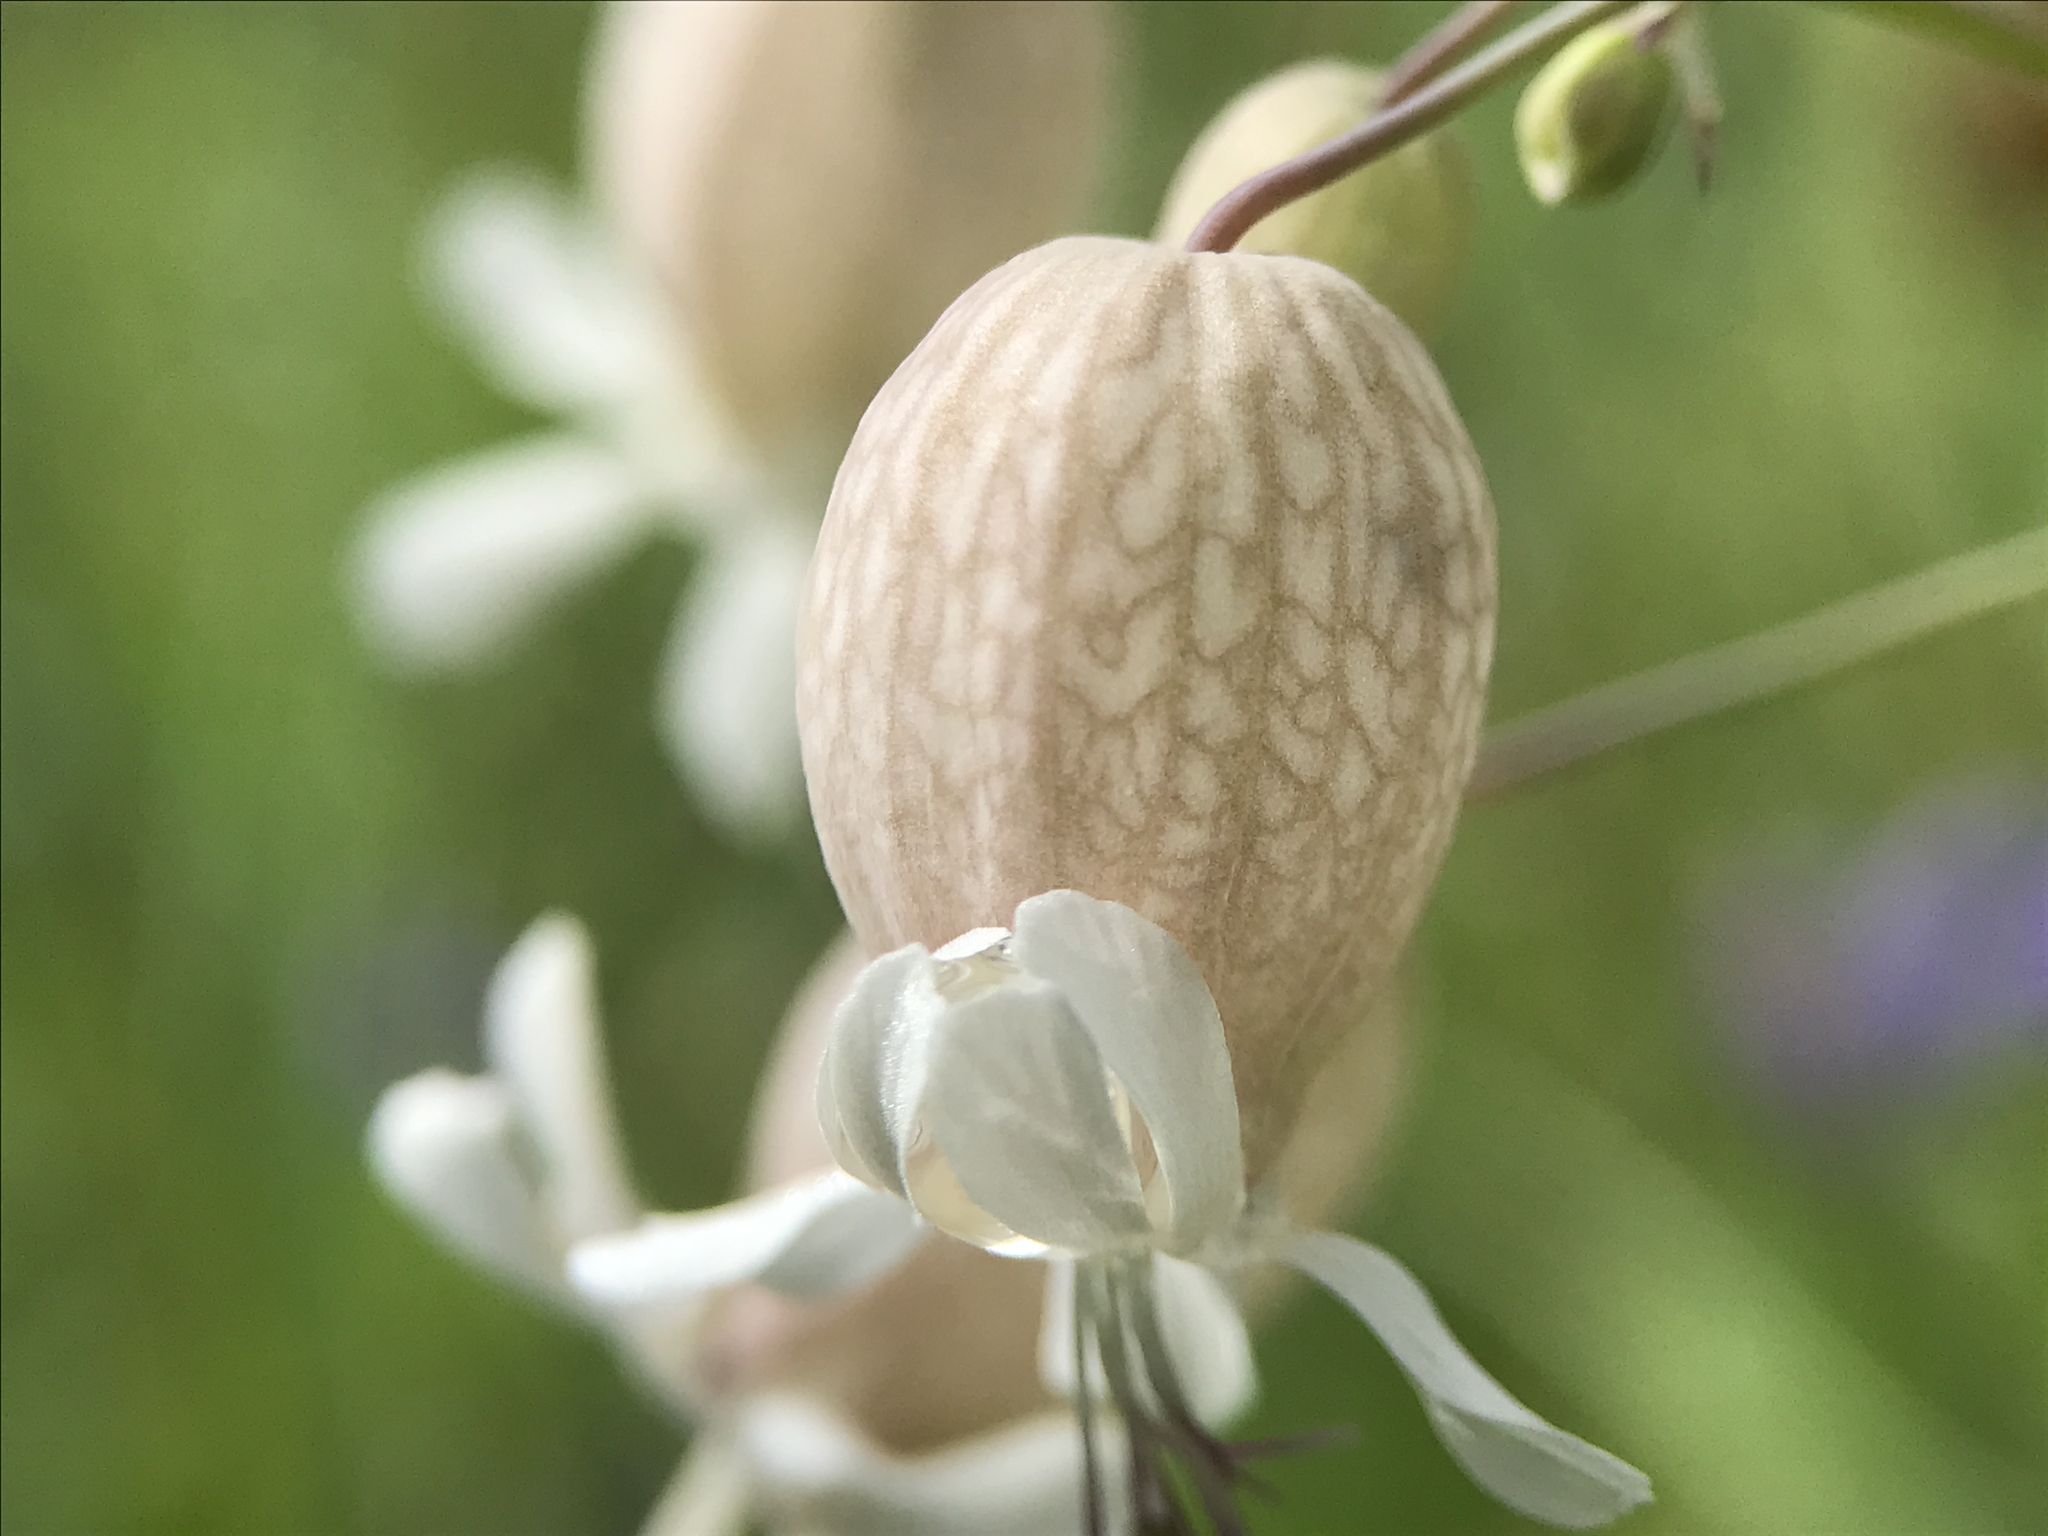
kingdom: Plantae
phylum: Tracheophyta
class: Magnoliopsida
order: Caryophyllales
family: Caryophyllaceae
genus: Silene
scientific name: Silene vulgaris
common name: Bladder campion
